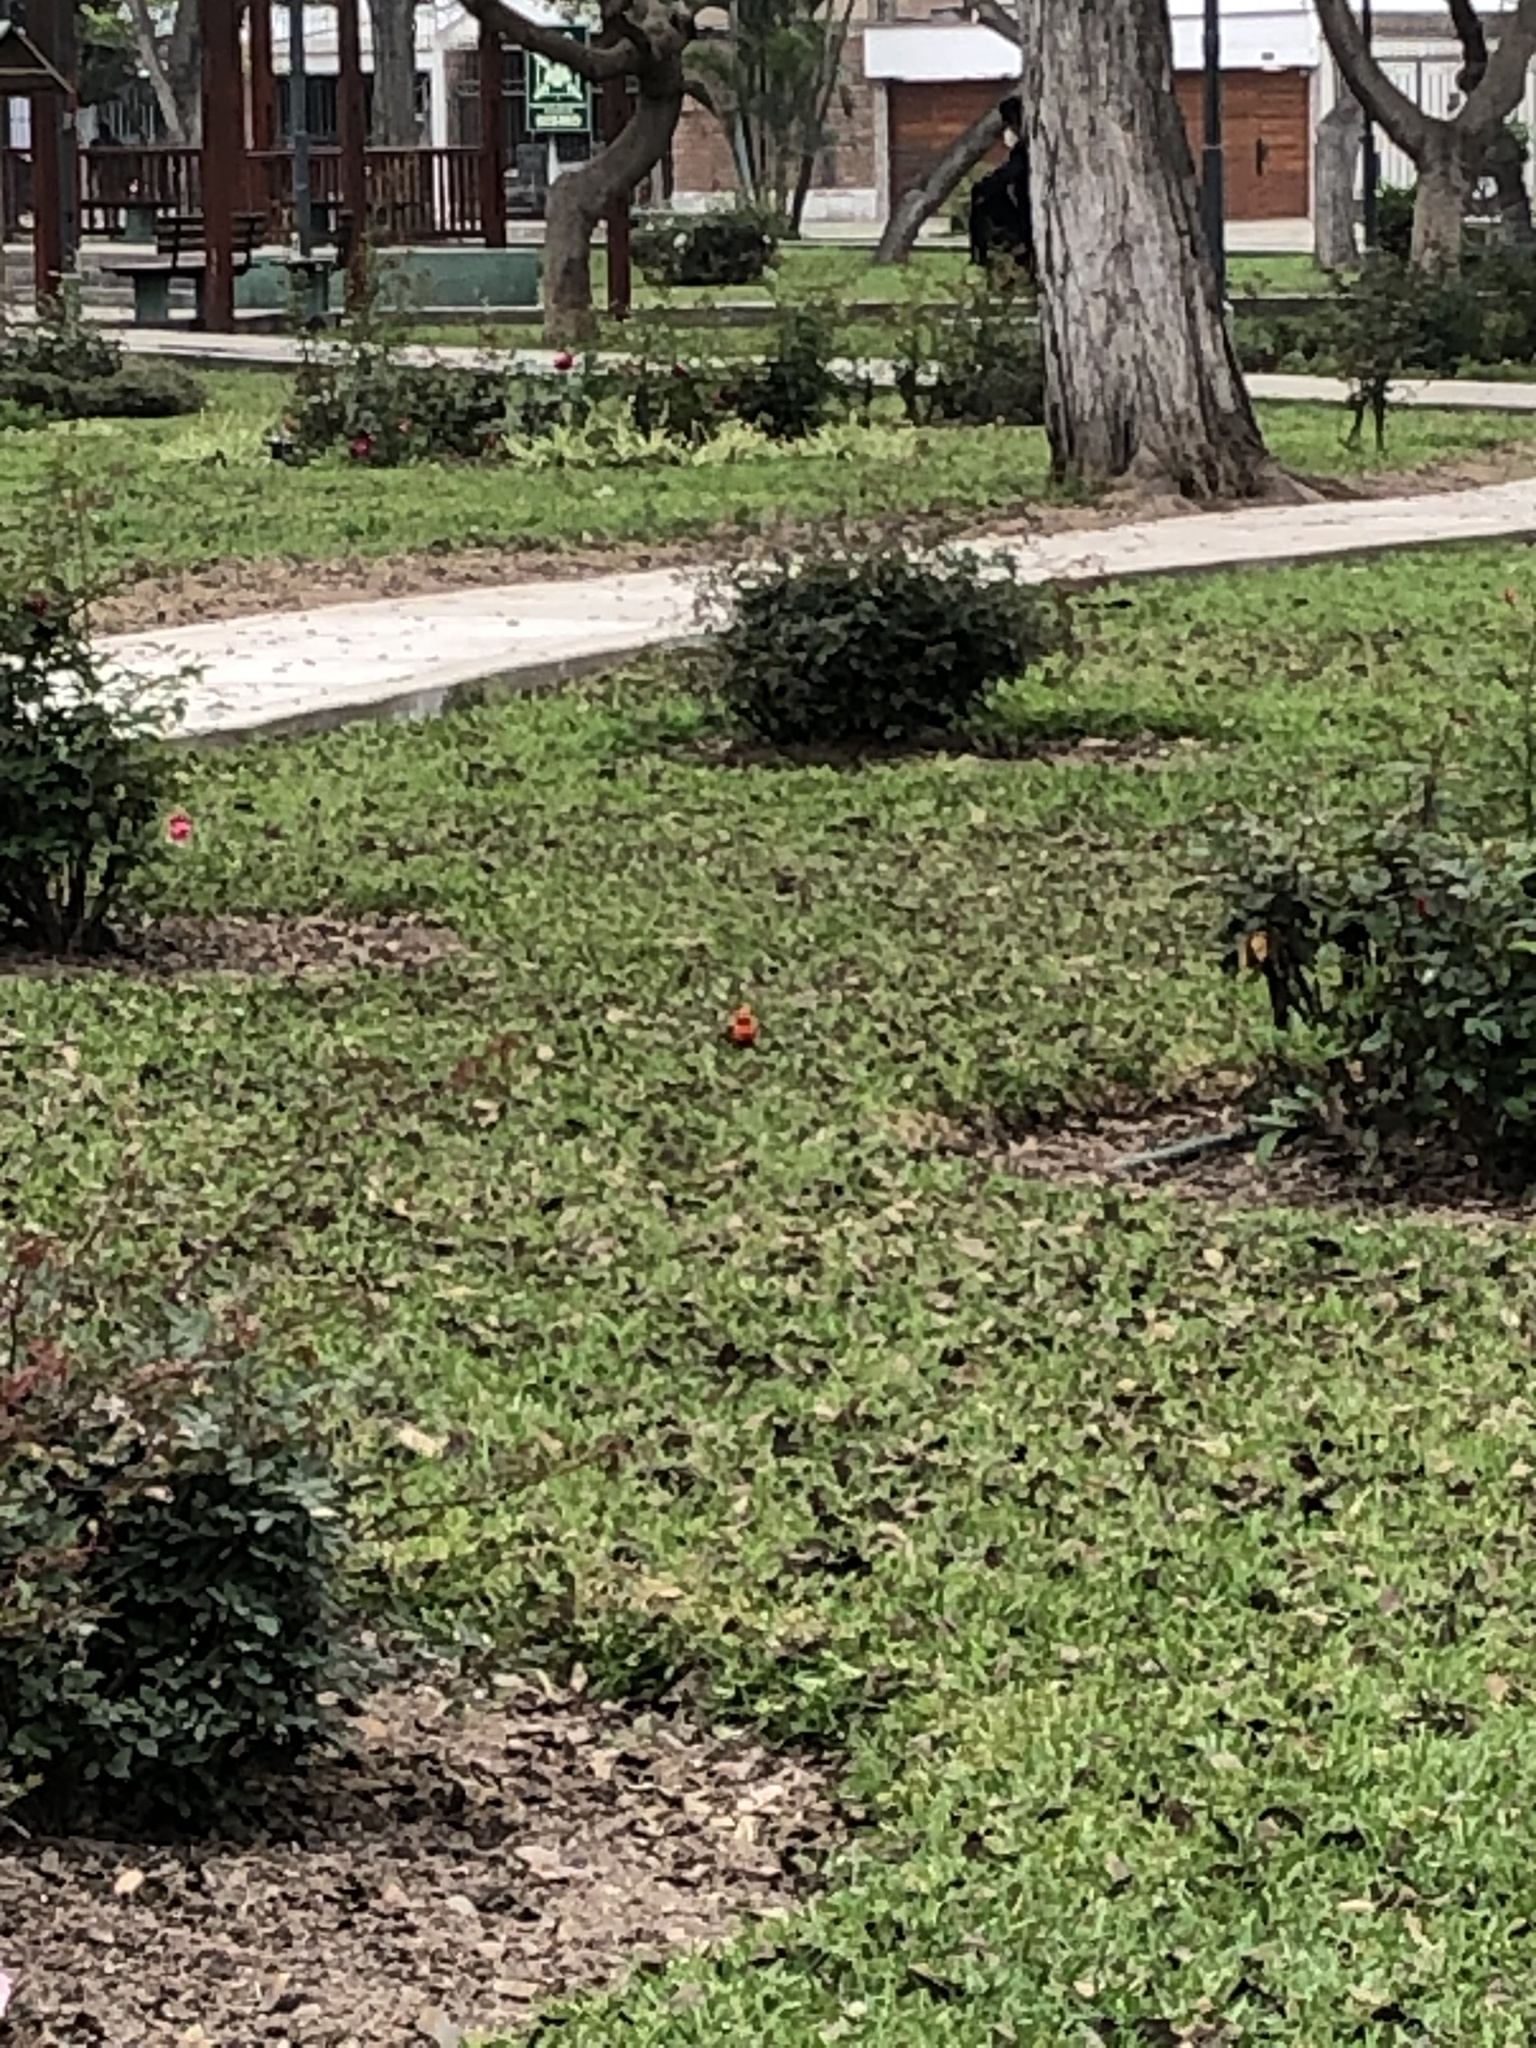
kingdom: Animalia
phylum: Chordata
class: Aves
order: Passeriformes
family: Tyrannidae
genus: Pyrocephalus
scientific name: Pyrocephalus rubinus
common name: Vermilion flycatcher
